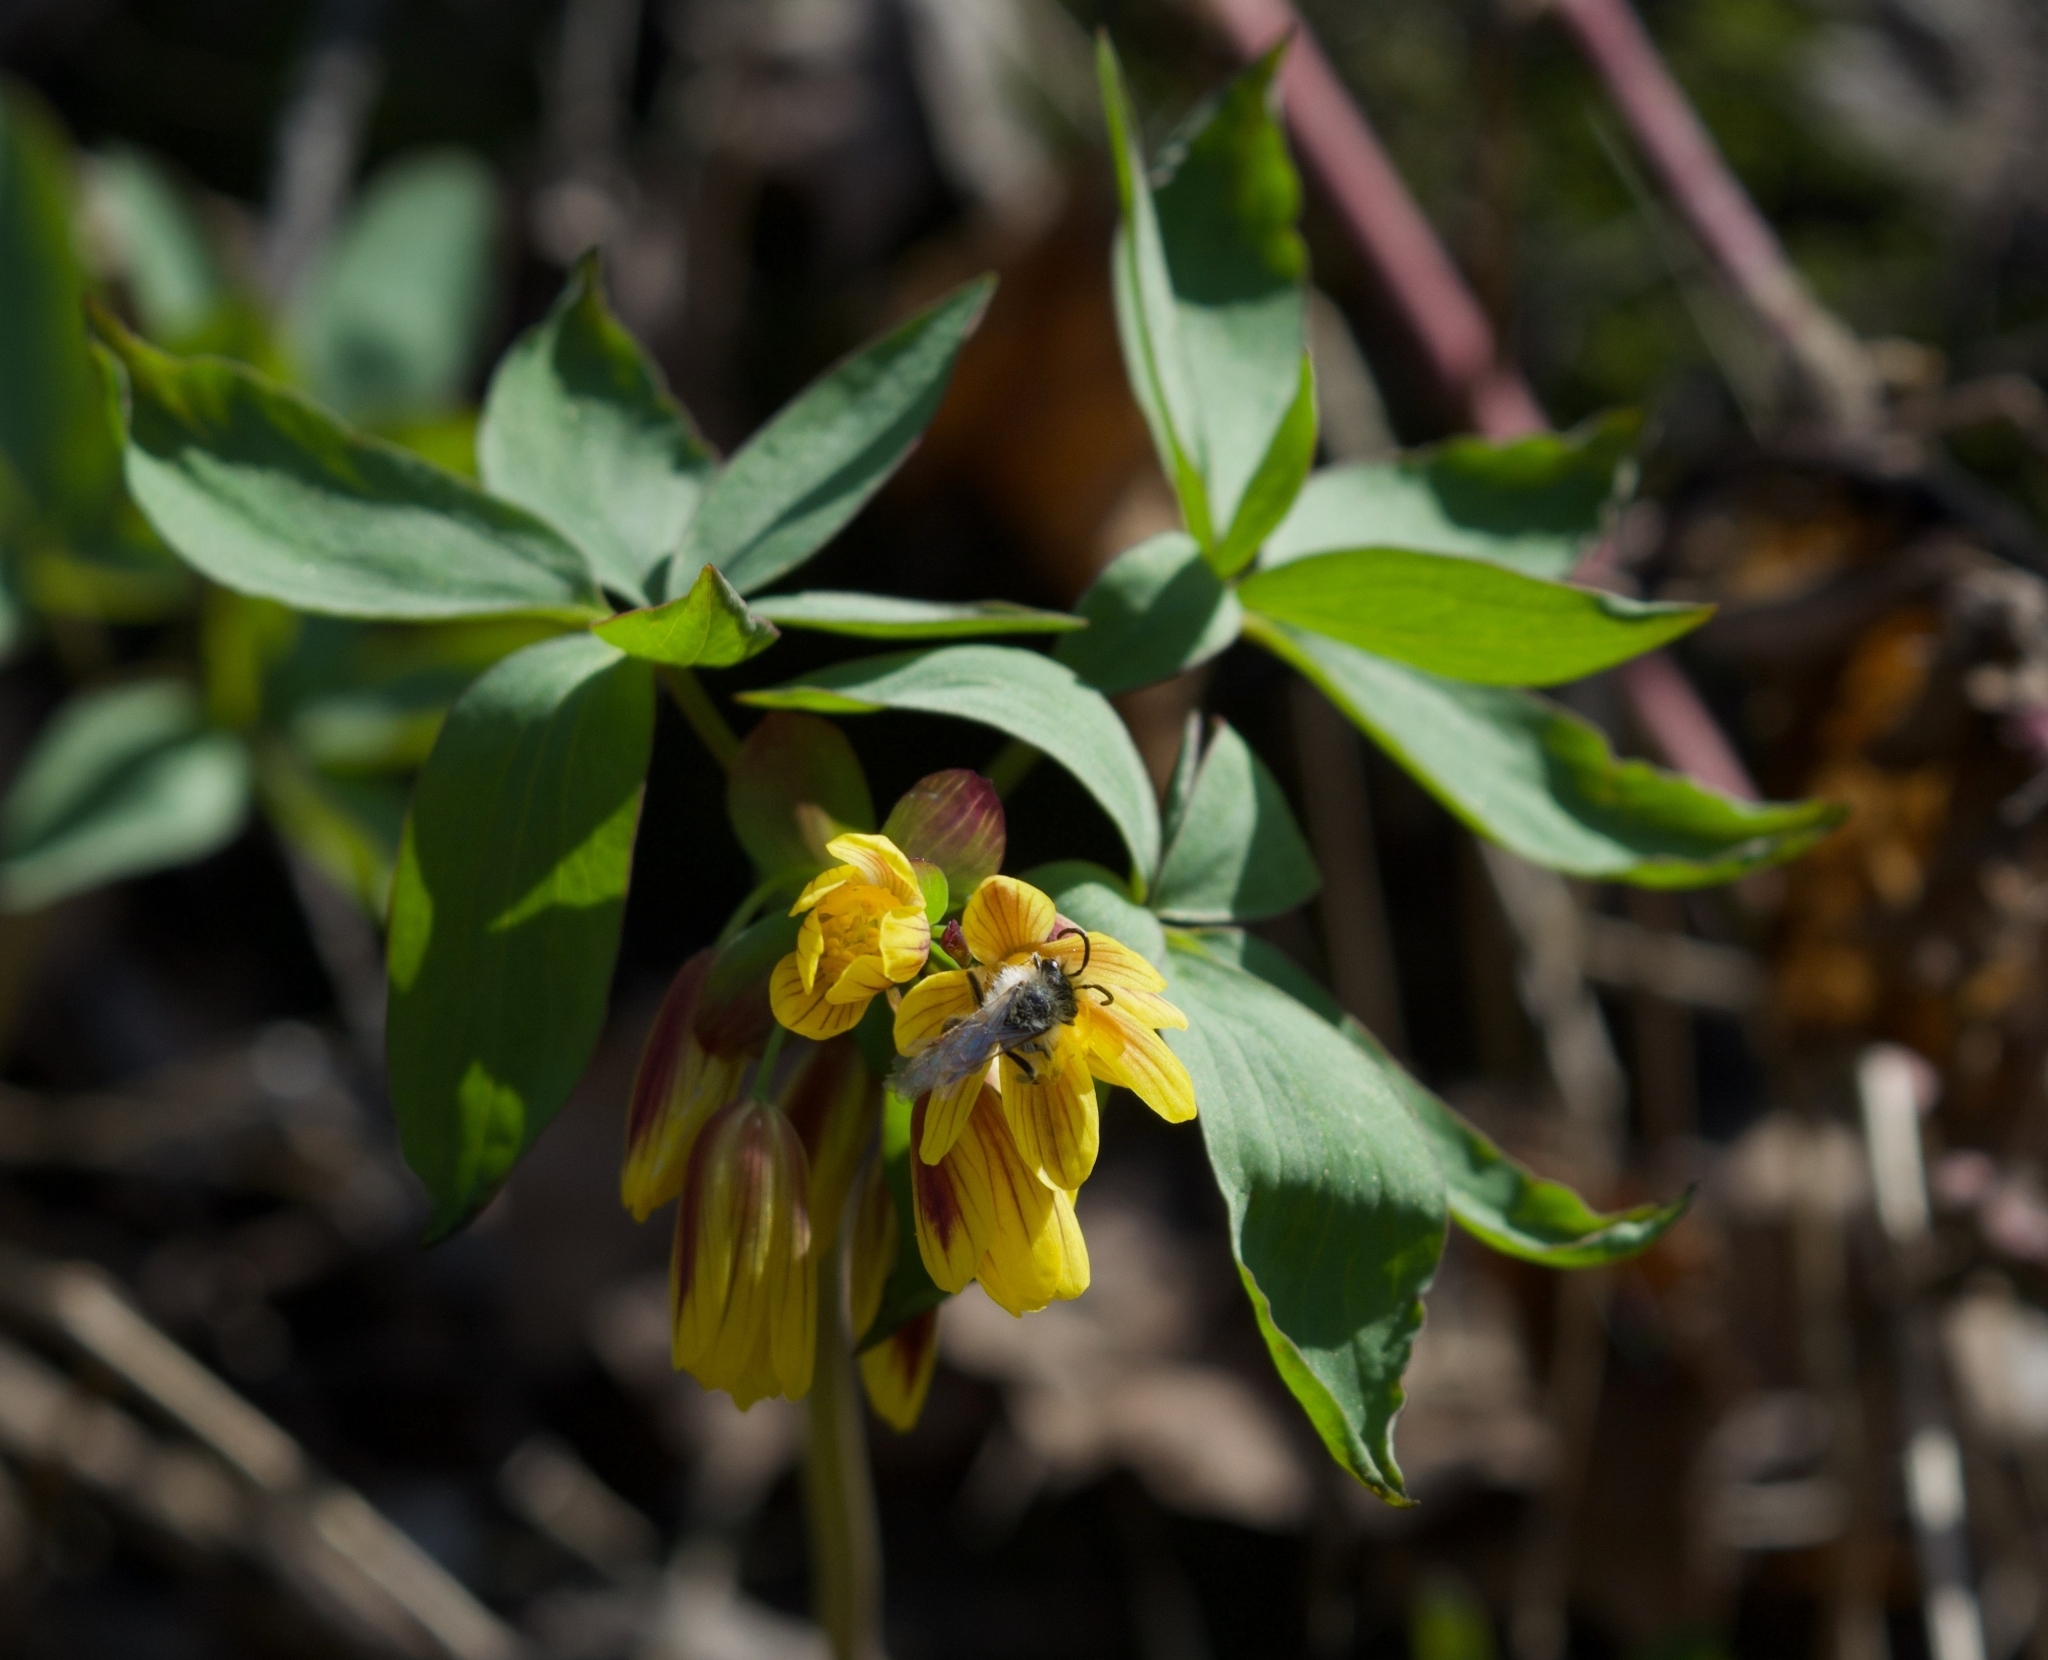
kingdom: Plantae
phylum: Tracheophyta
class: Magnoliopsida
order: Ranunculales
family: Berberidaceae
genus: Gymnospermium
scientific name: Gymnospermium alberti
